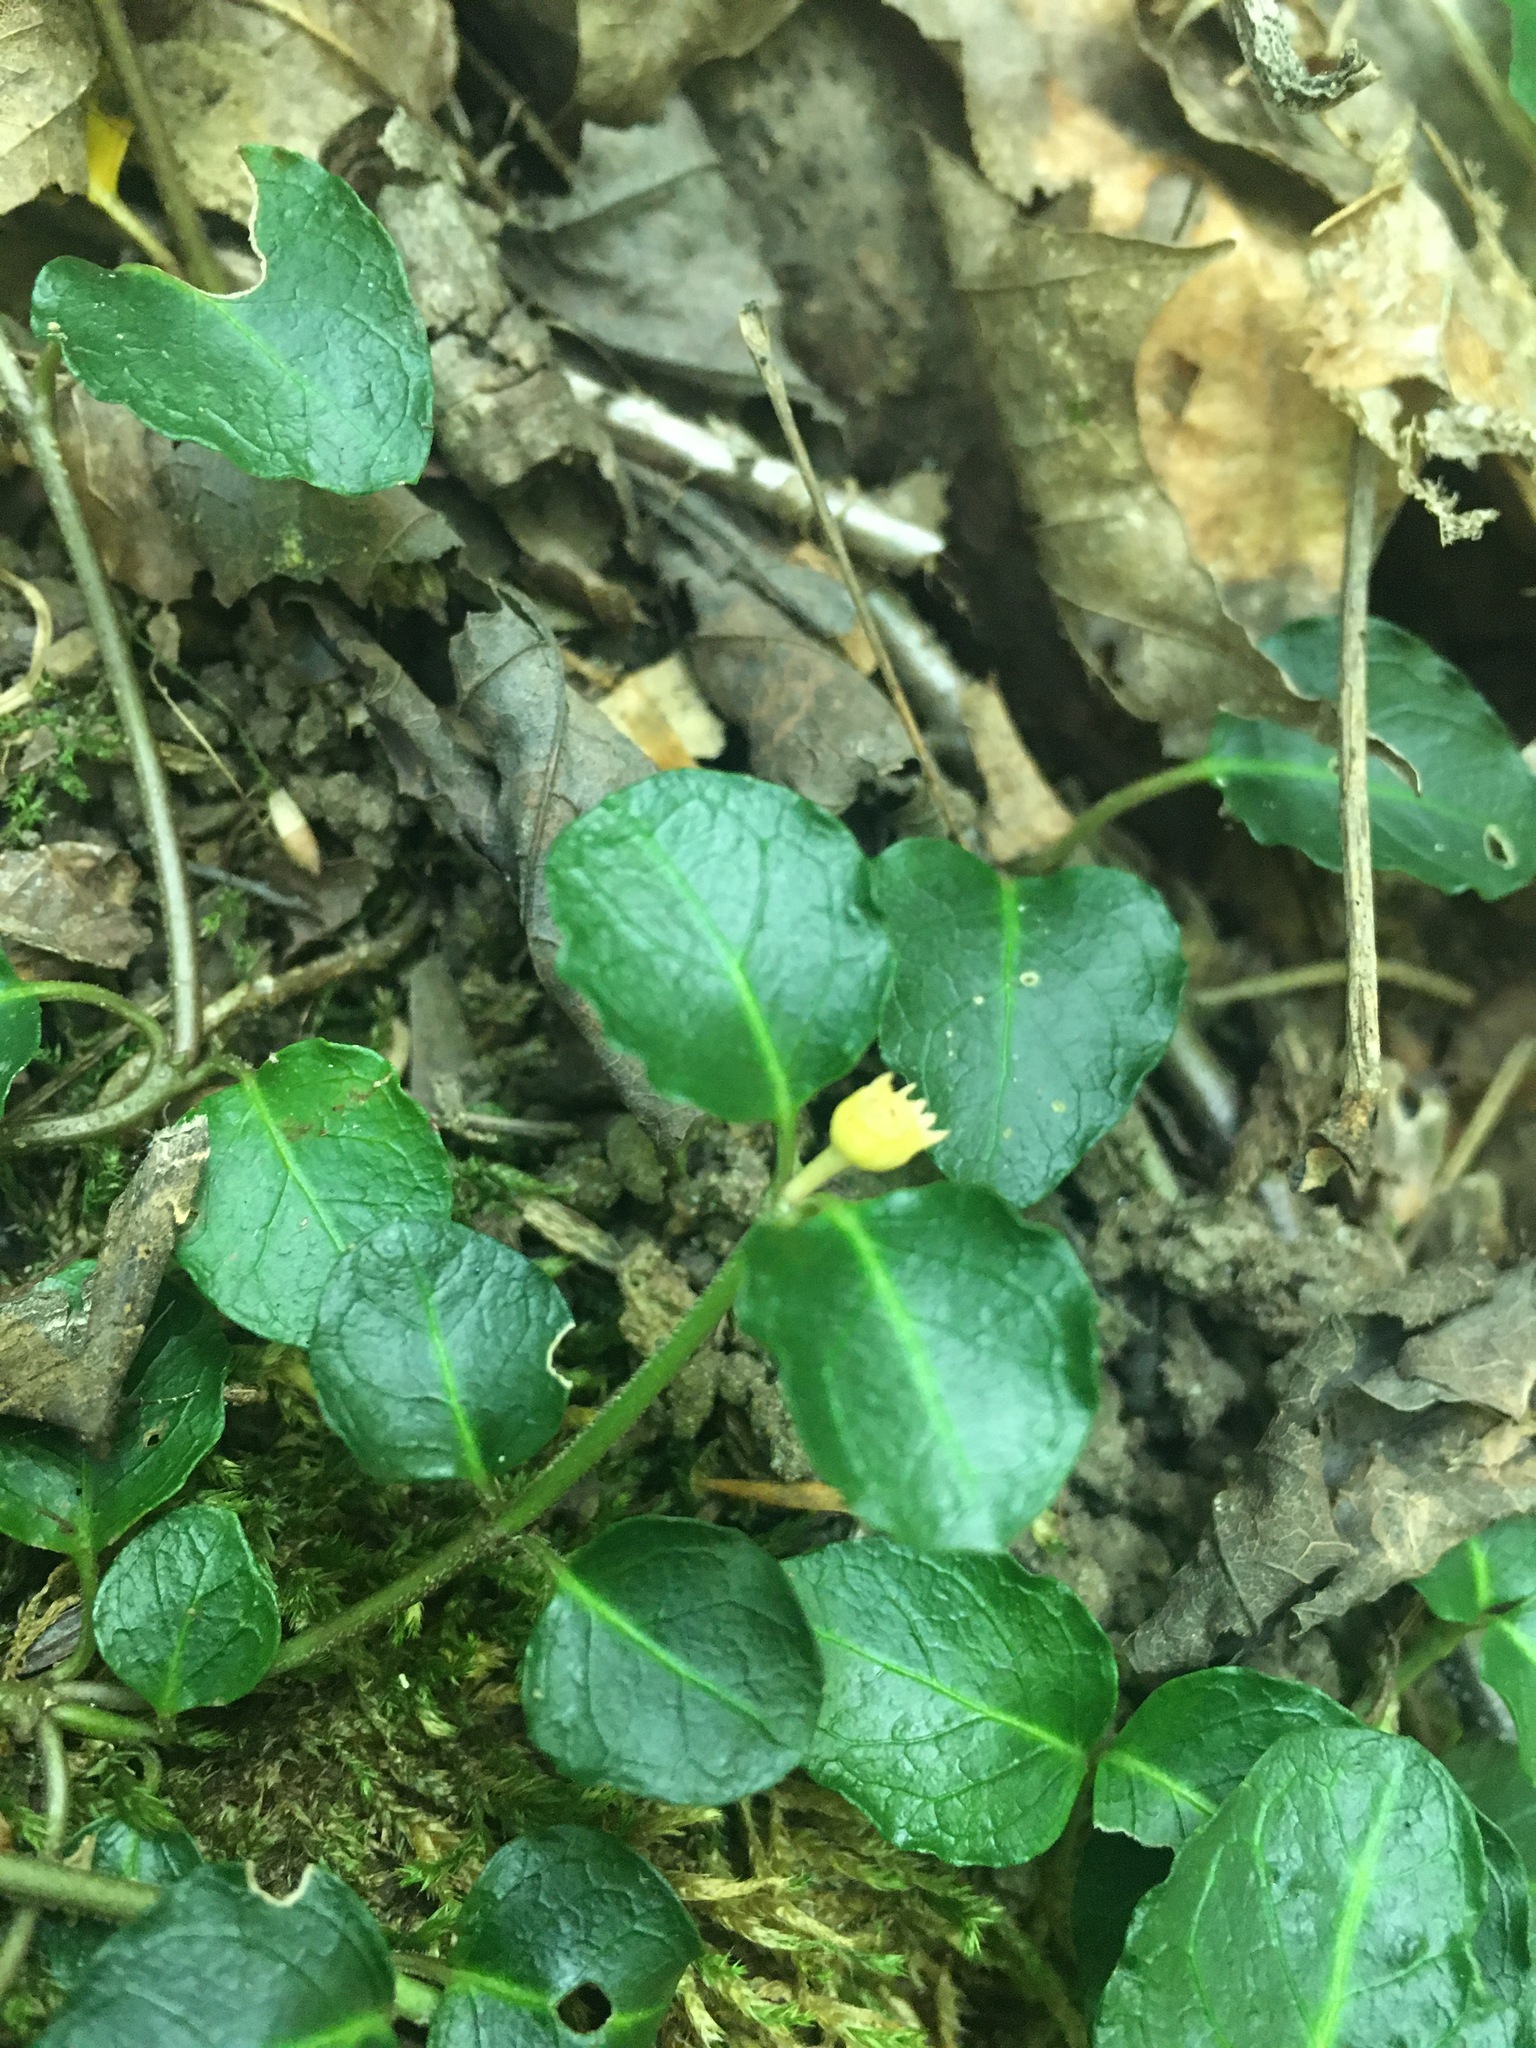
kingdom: Plantae
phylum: Tracheophyta
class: Magnoliopsida
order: Gentianales
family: Rubiaceae
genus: Mitchella
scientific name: Mitchella repens
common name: Partridge-berry
